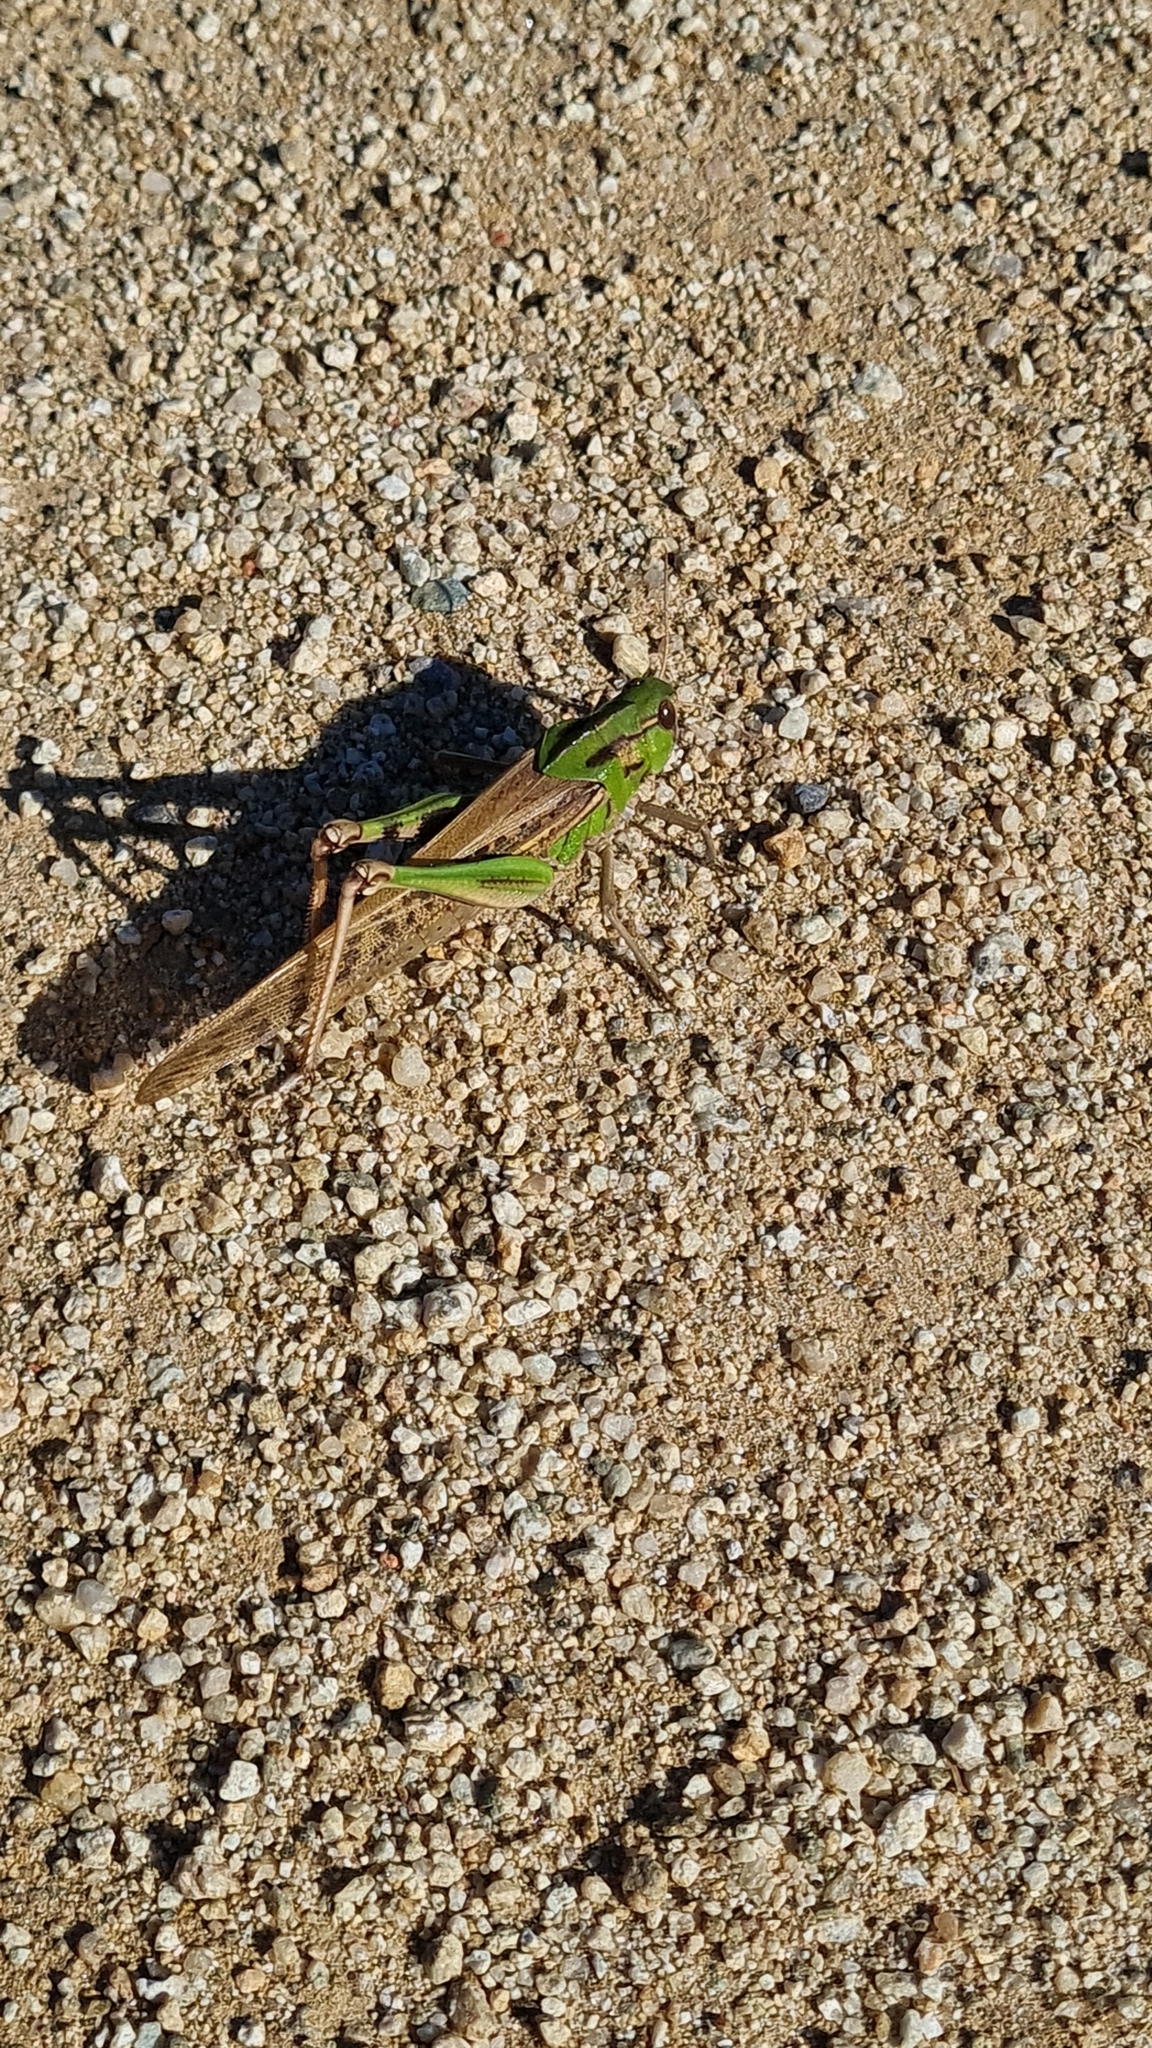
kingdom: Animalia
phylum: Arthropoda
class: Insecta
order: Orthoptera
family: Acrididae
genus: Locusta
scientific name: Locusta migratoria
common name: Migratory locust
